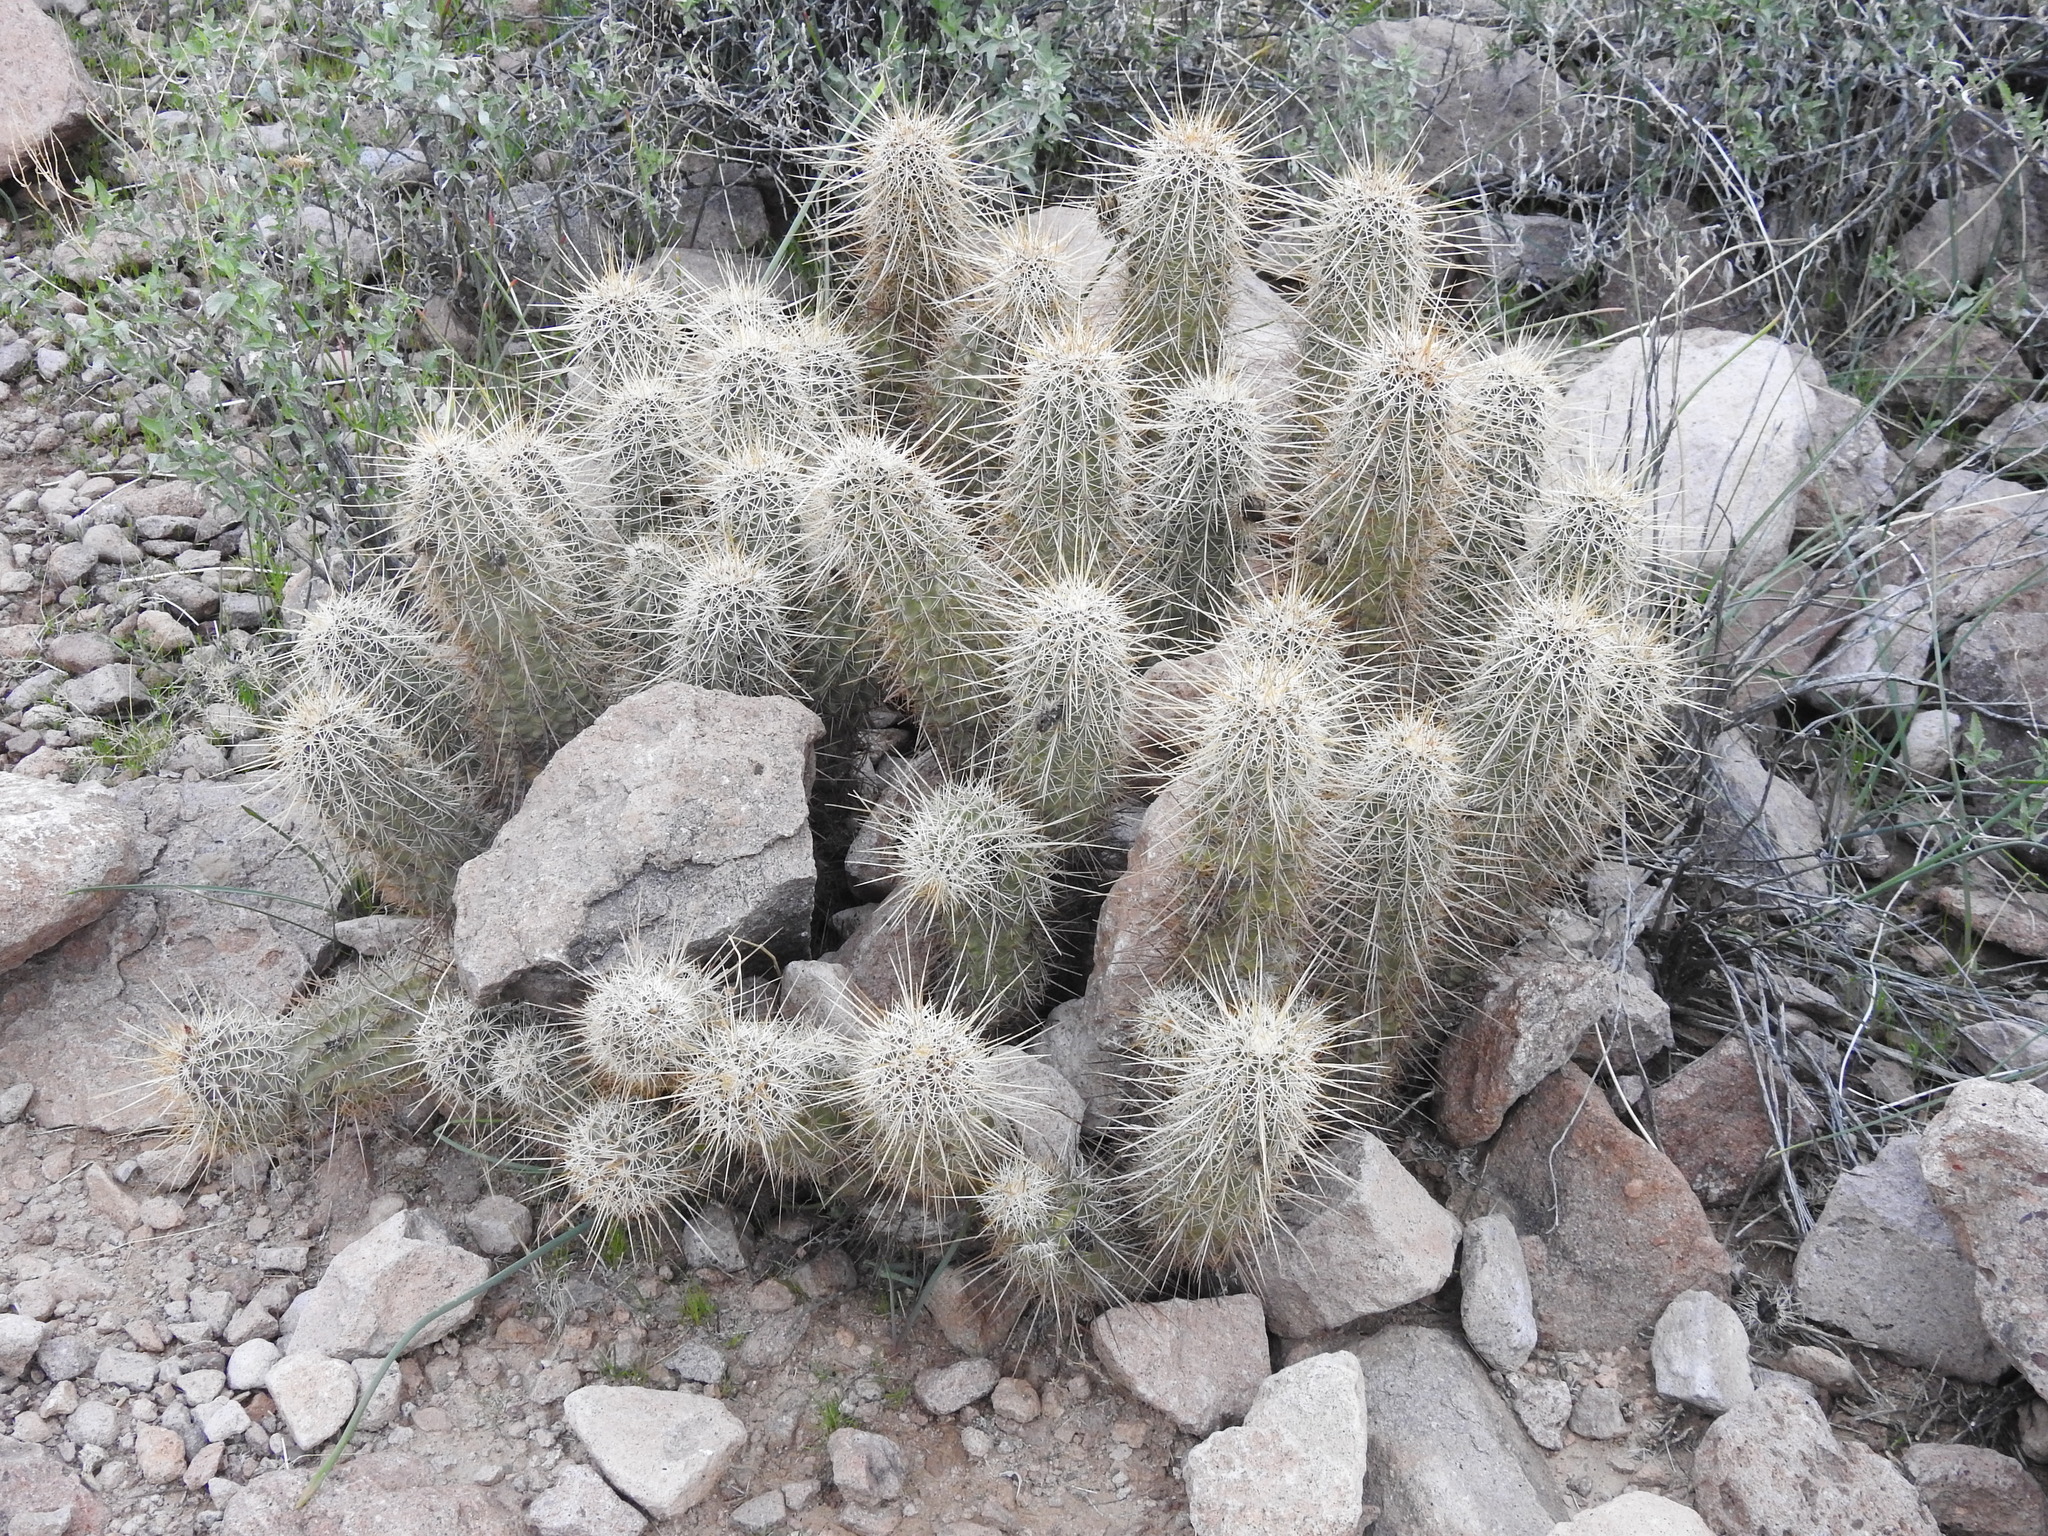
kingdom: Plantae
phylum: Tracheophyta
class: Magnoliopsida
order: Caryophyllales
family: Cactaceae
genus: Echinocereus
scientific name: Echinocereus bonkerae
